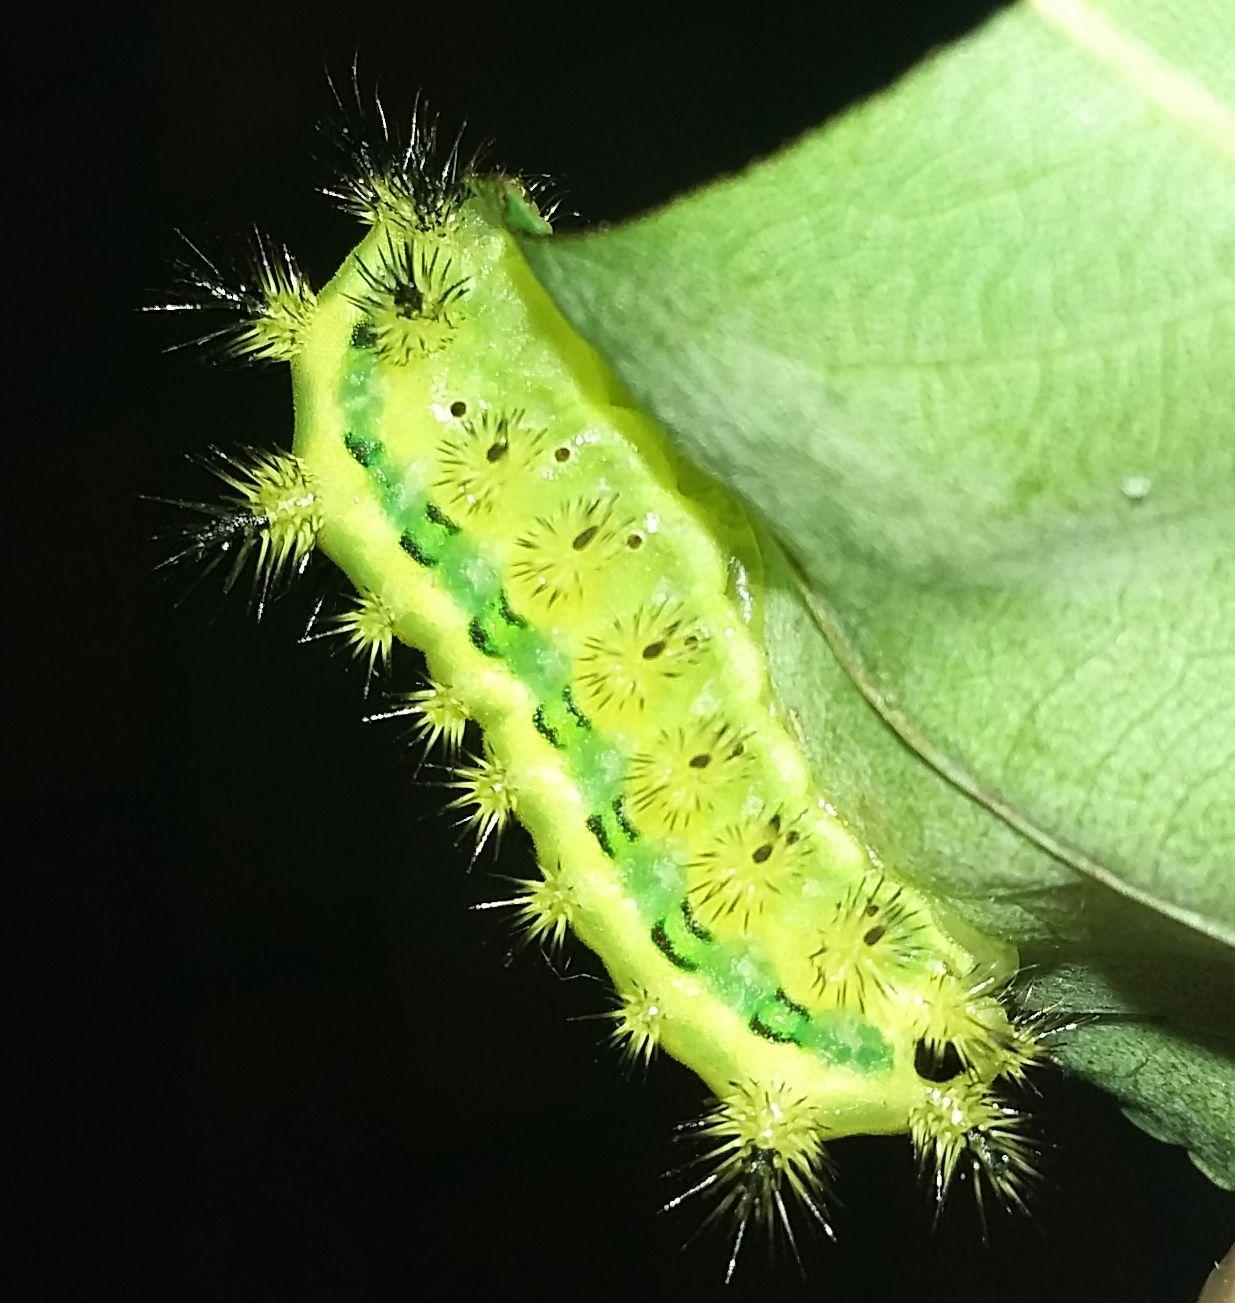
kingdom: Animalia
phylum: Arthropoda
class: Insecta
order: Lepidoptera
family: Limacodidae
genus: Parasa
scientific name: Parasa vivida
